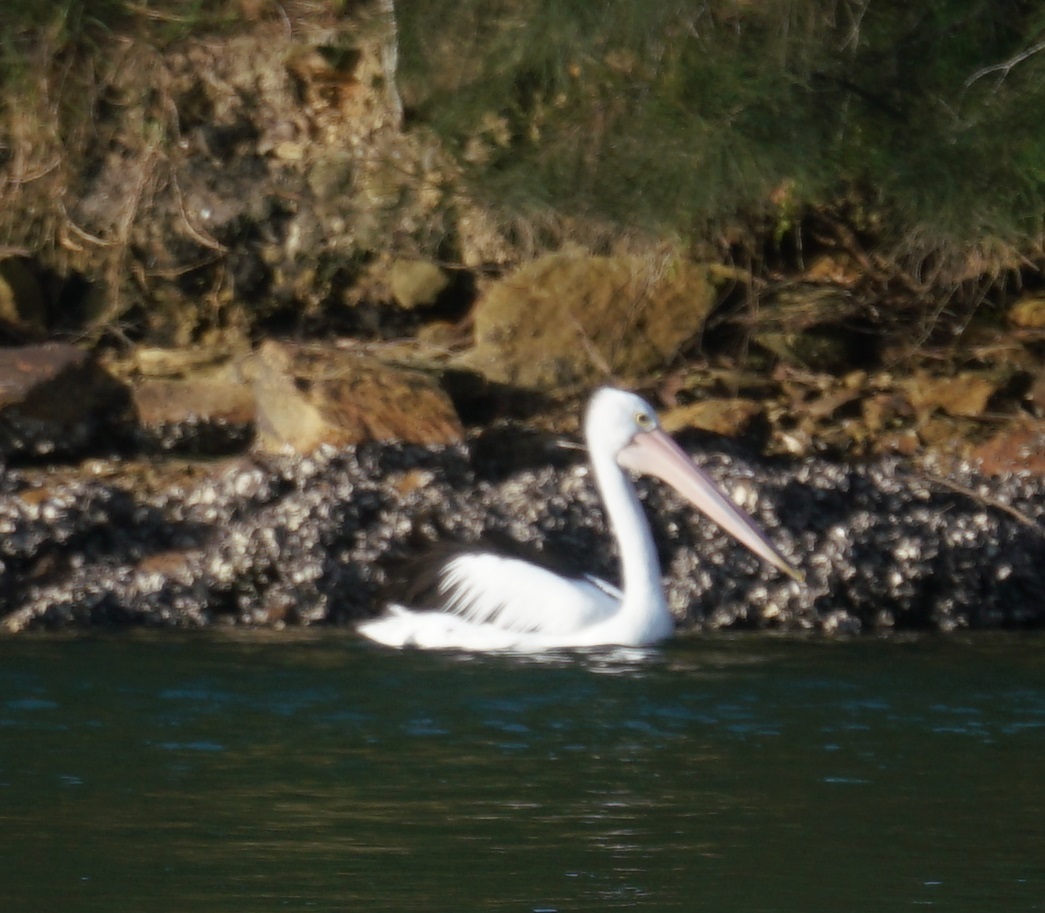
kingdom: Animalia
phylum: Chordata
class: Aves
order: Pelecaniformes
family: Pelecanidae
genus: Pelecanus
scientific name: Pelecanus conspicillatus
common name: Australian pelican
